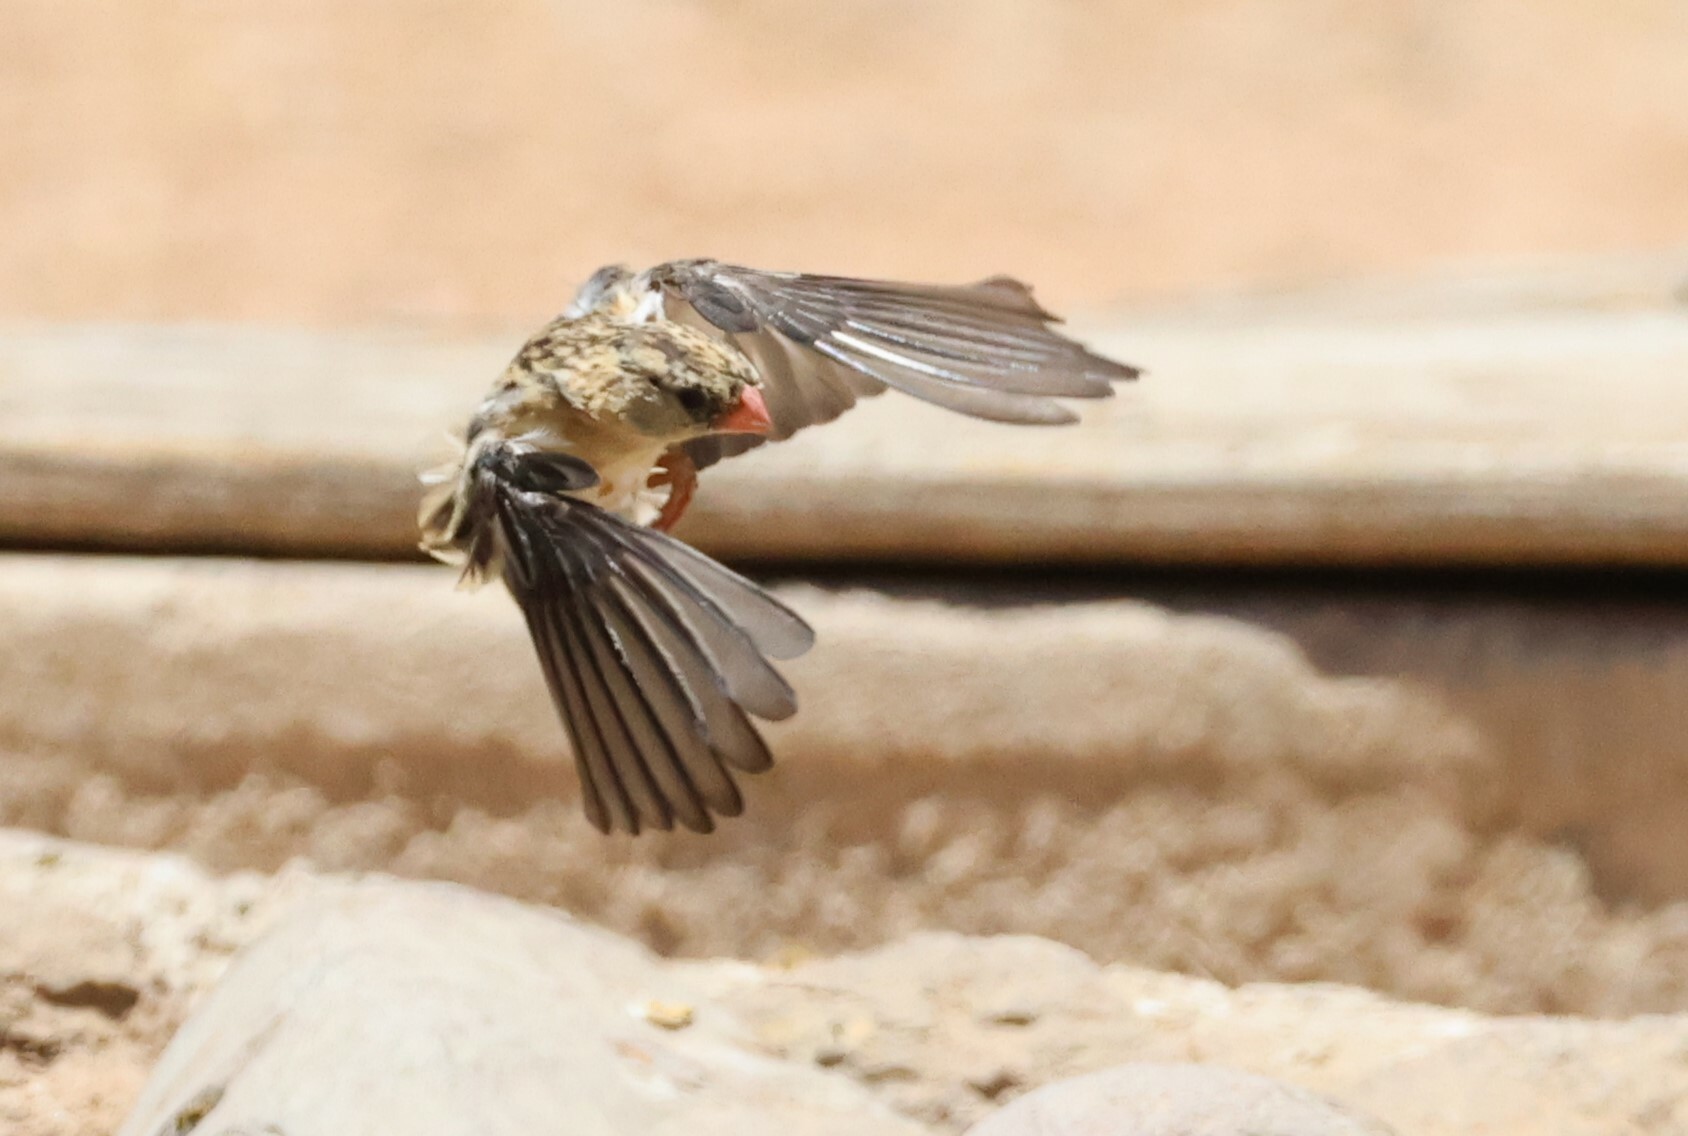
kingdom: Animalia
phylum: Chordata
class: Aves
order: Passeriformes
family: Ploceidae
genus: Quelea
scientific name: Quelea quelea
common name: Red-billed quelea
